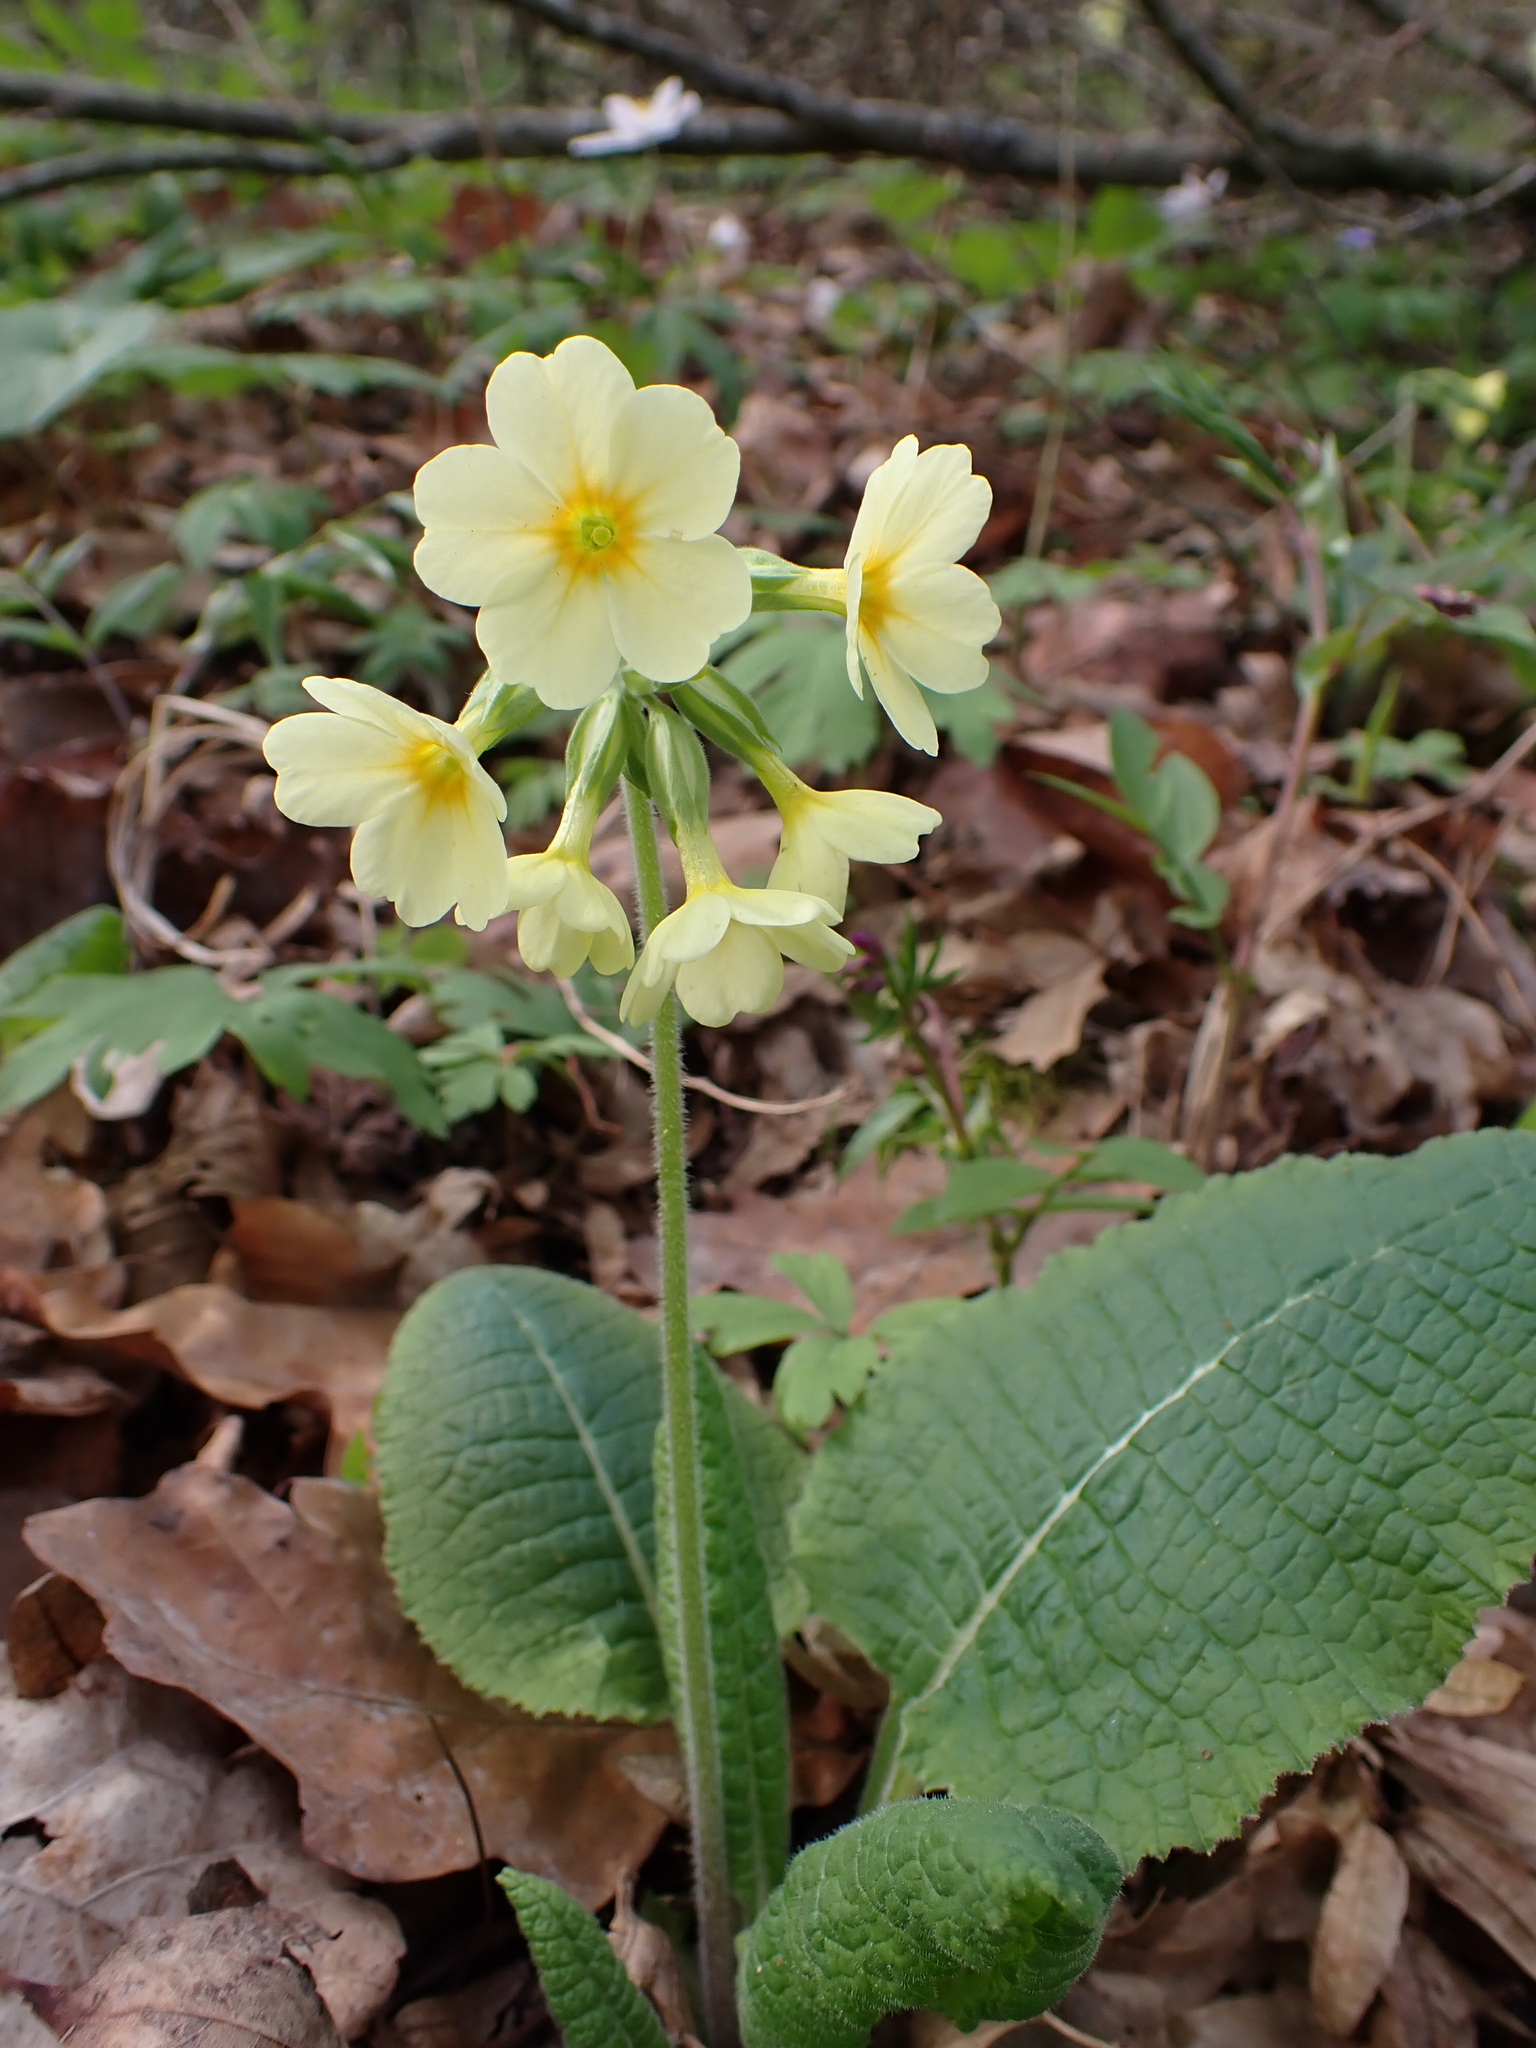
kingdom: Plantae
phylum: Tracheophyta
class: Magnoliopsida
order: Ericales
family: Primulaceae
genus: Primula
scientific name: Primula elatior
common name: Oxlip
